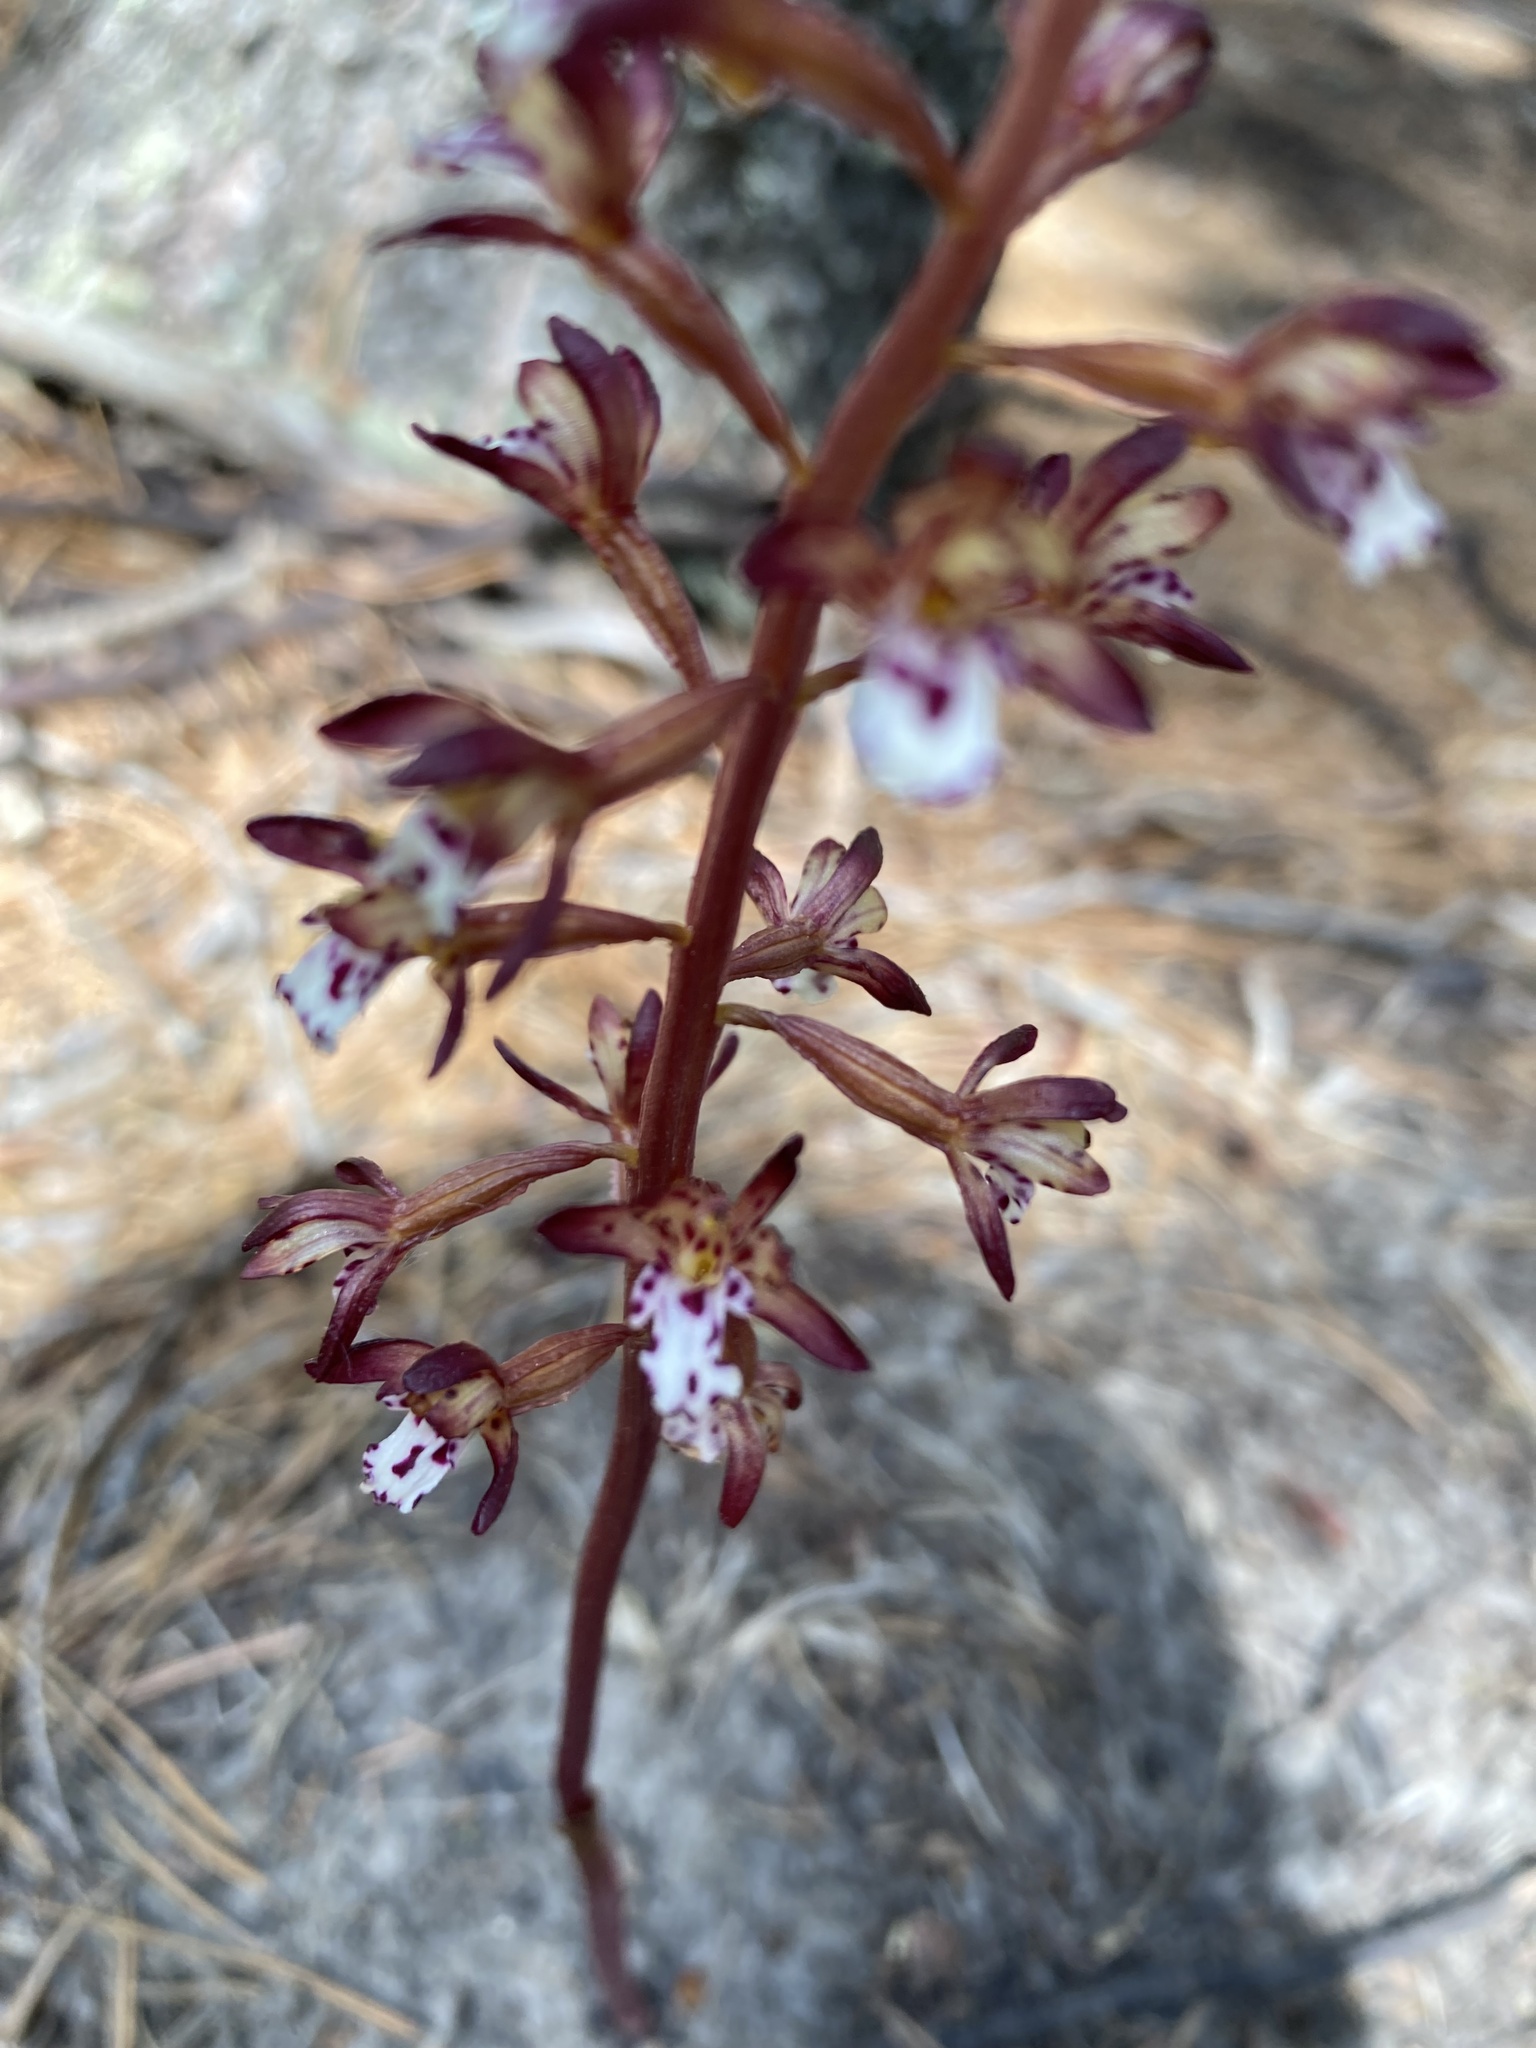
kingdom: Plantae
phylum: Tracheophyta
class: Liliopsida
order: Asparagales
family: Orchidaceae
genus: Corallorhiza
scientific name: Corallorhiza maculata
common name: Spotted coralroot
